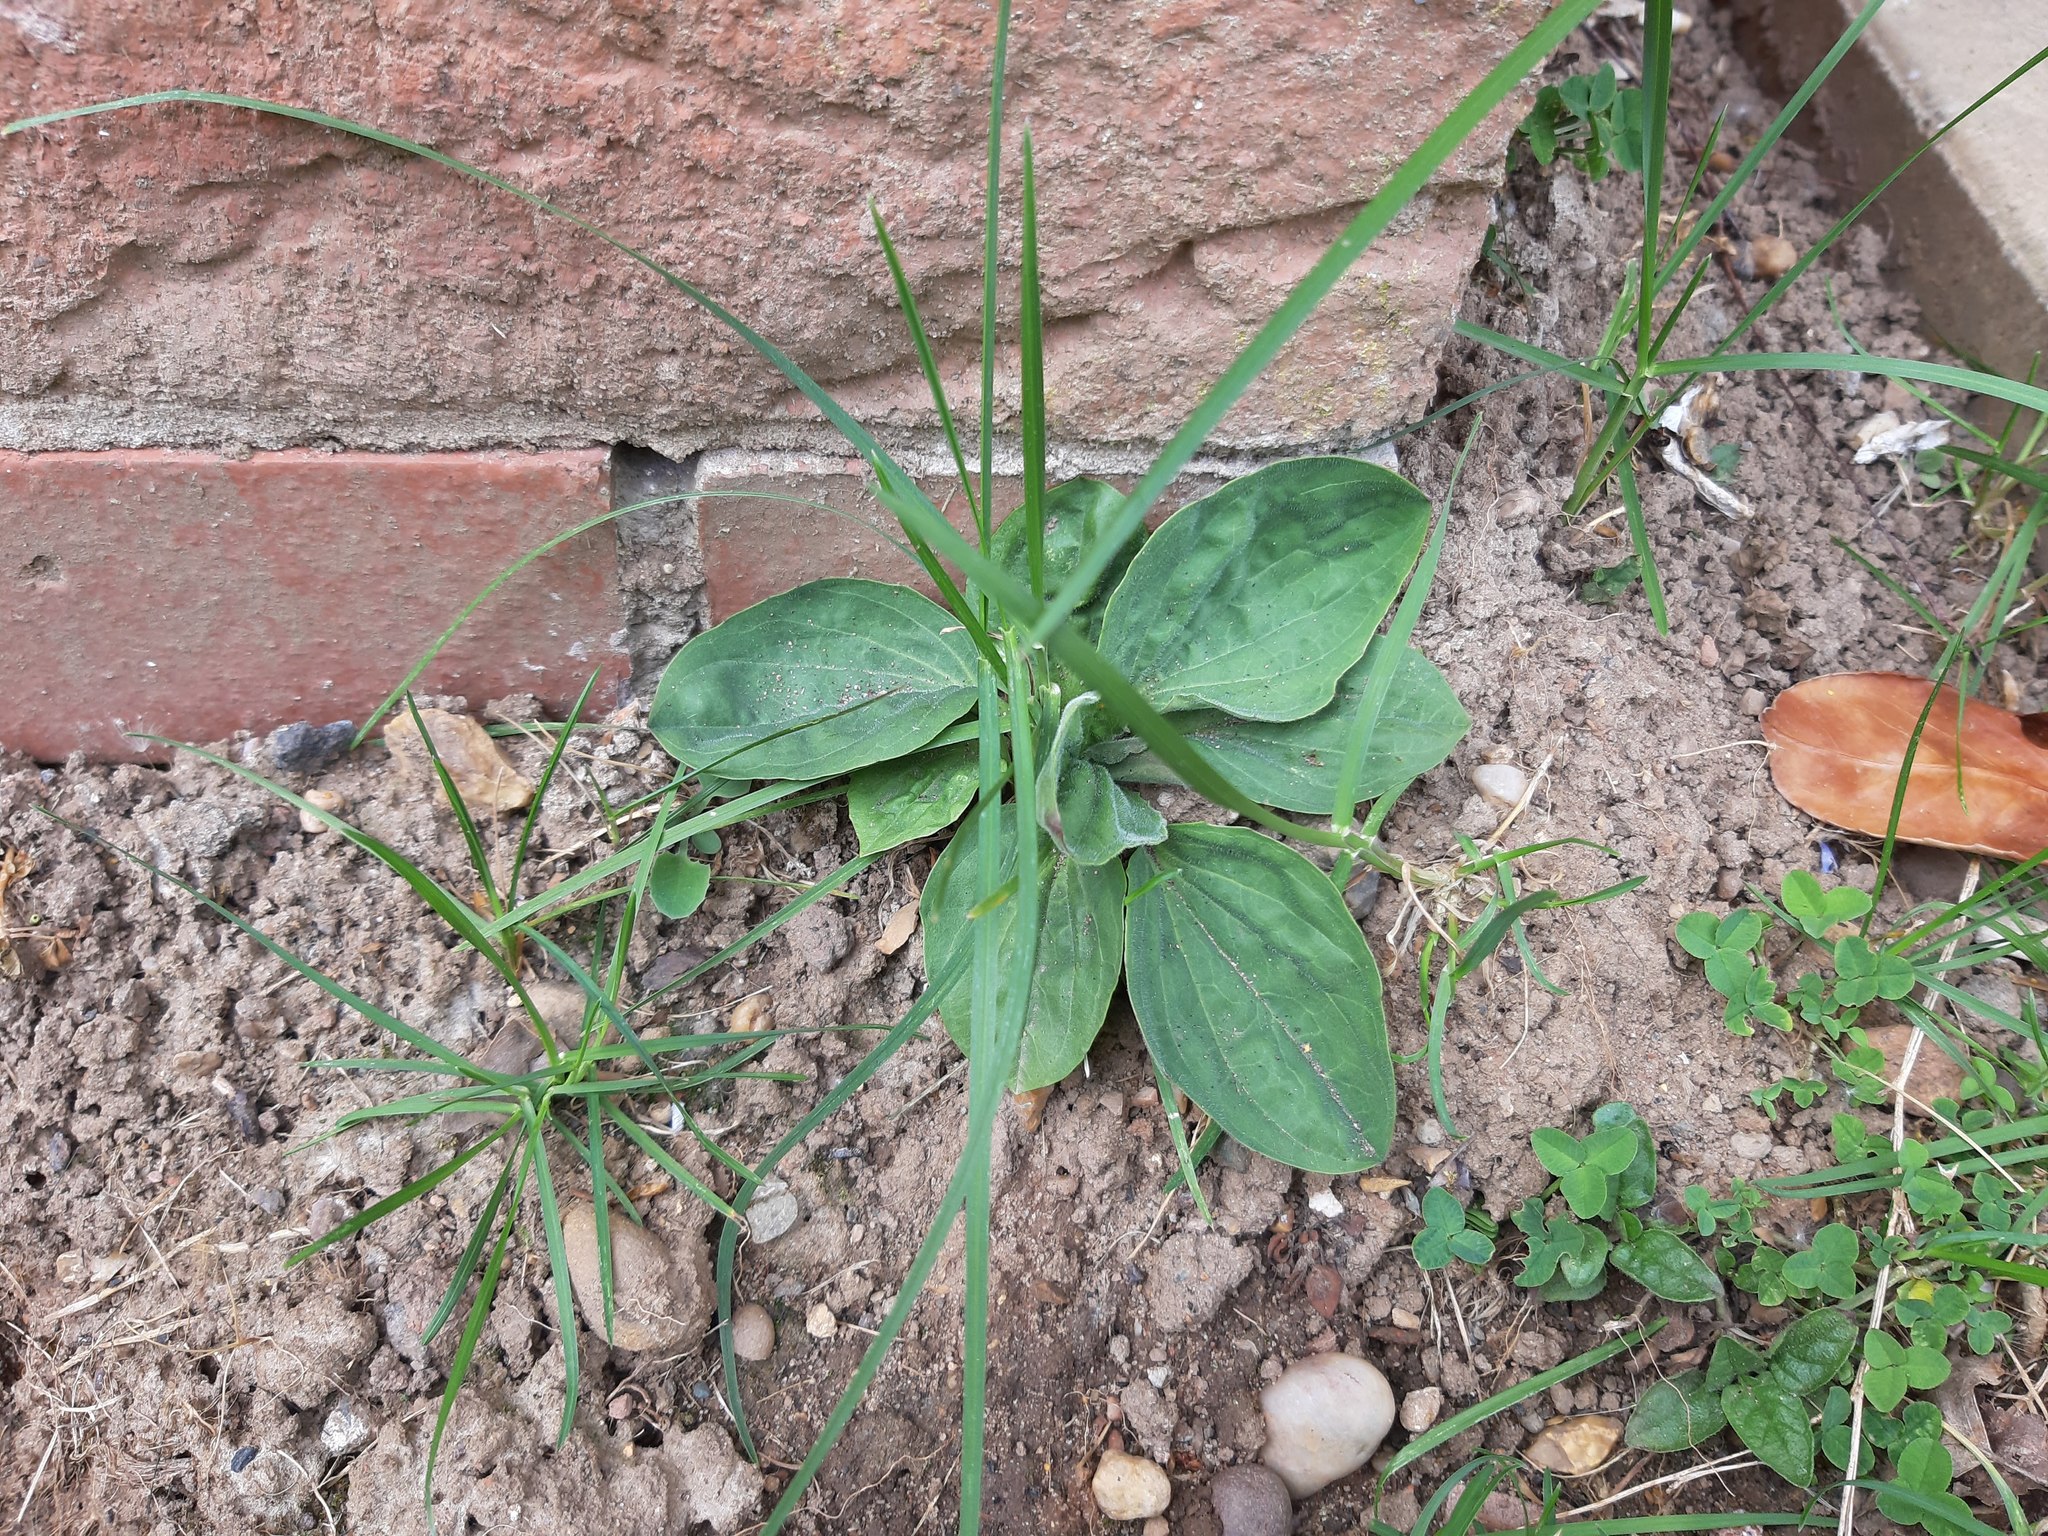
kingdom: Plantae
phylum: Tracheophyta
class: Magnoliopsida
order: Lamiales
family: Plantaginaceae
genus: Plantago
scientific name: Plantago major
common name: Common plantain
